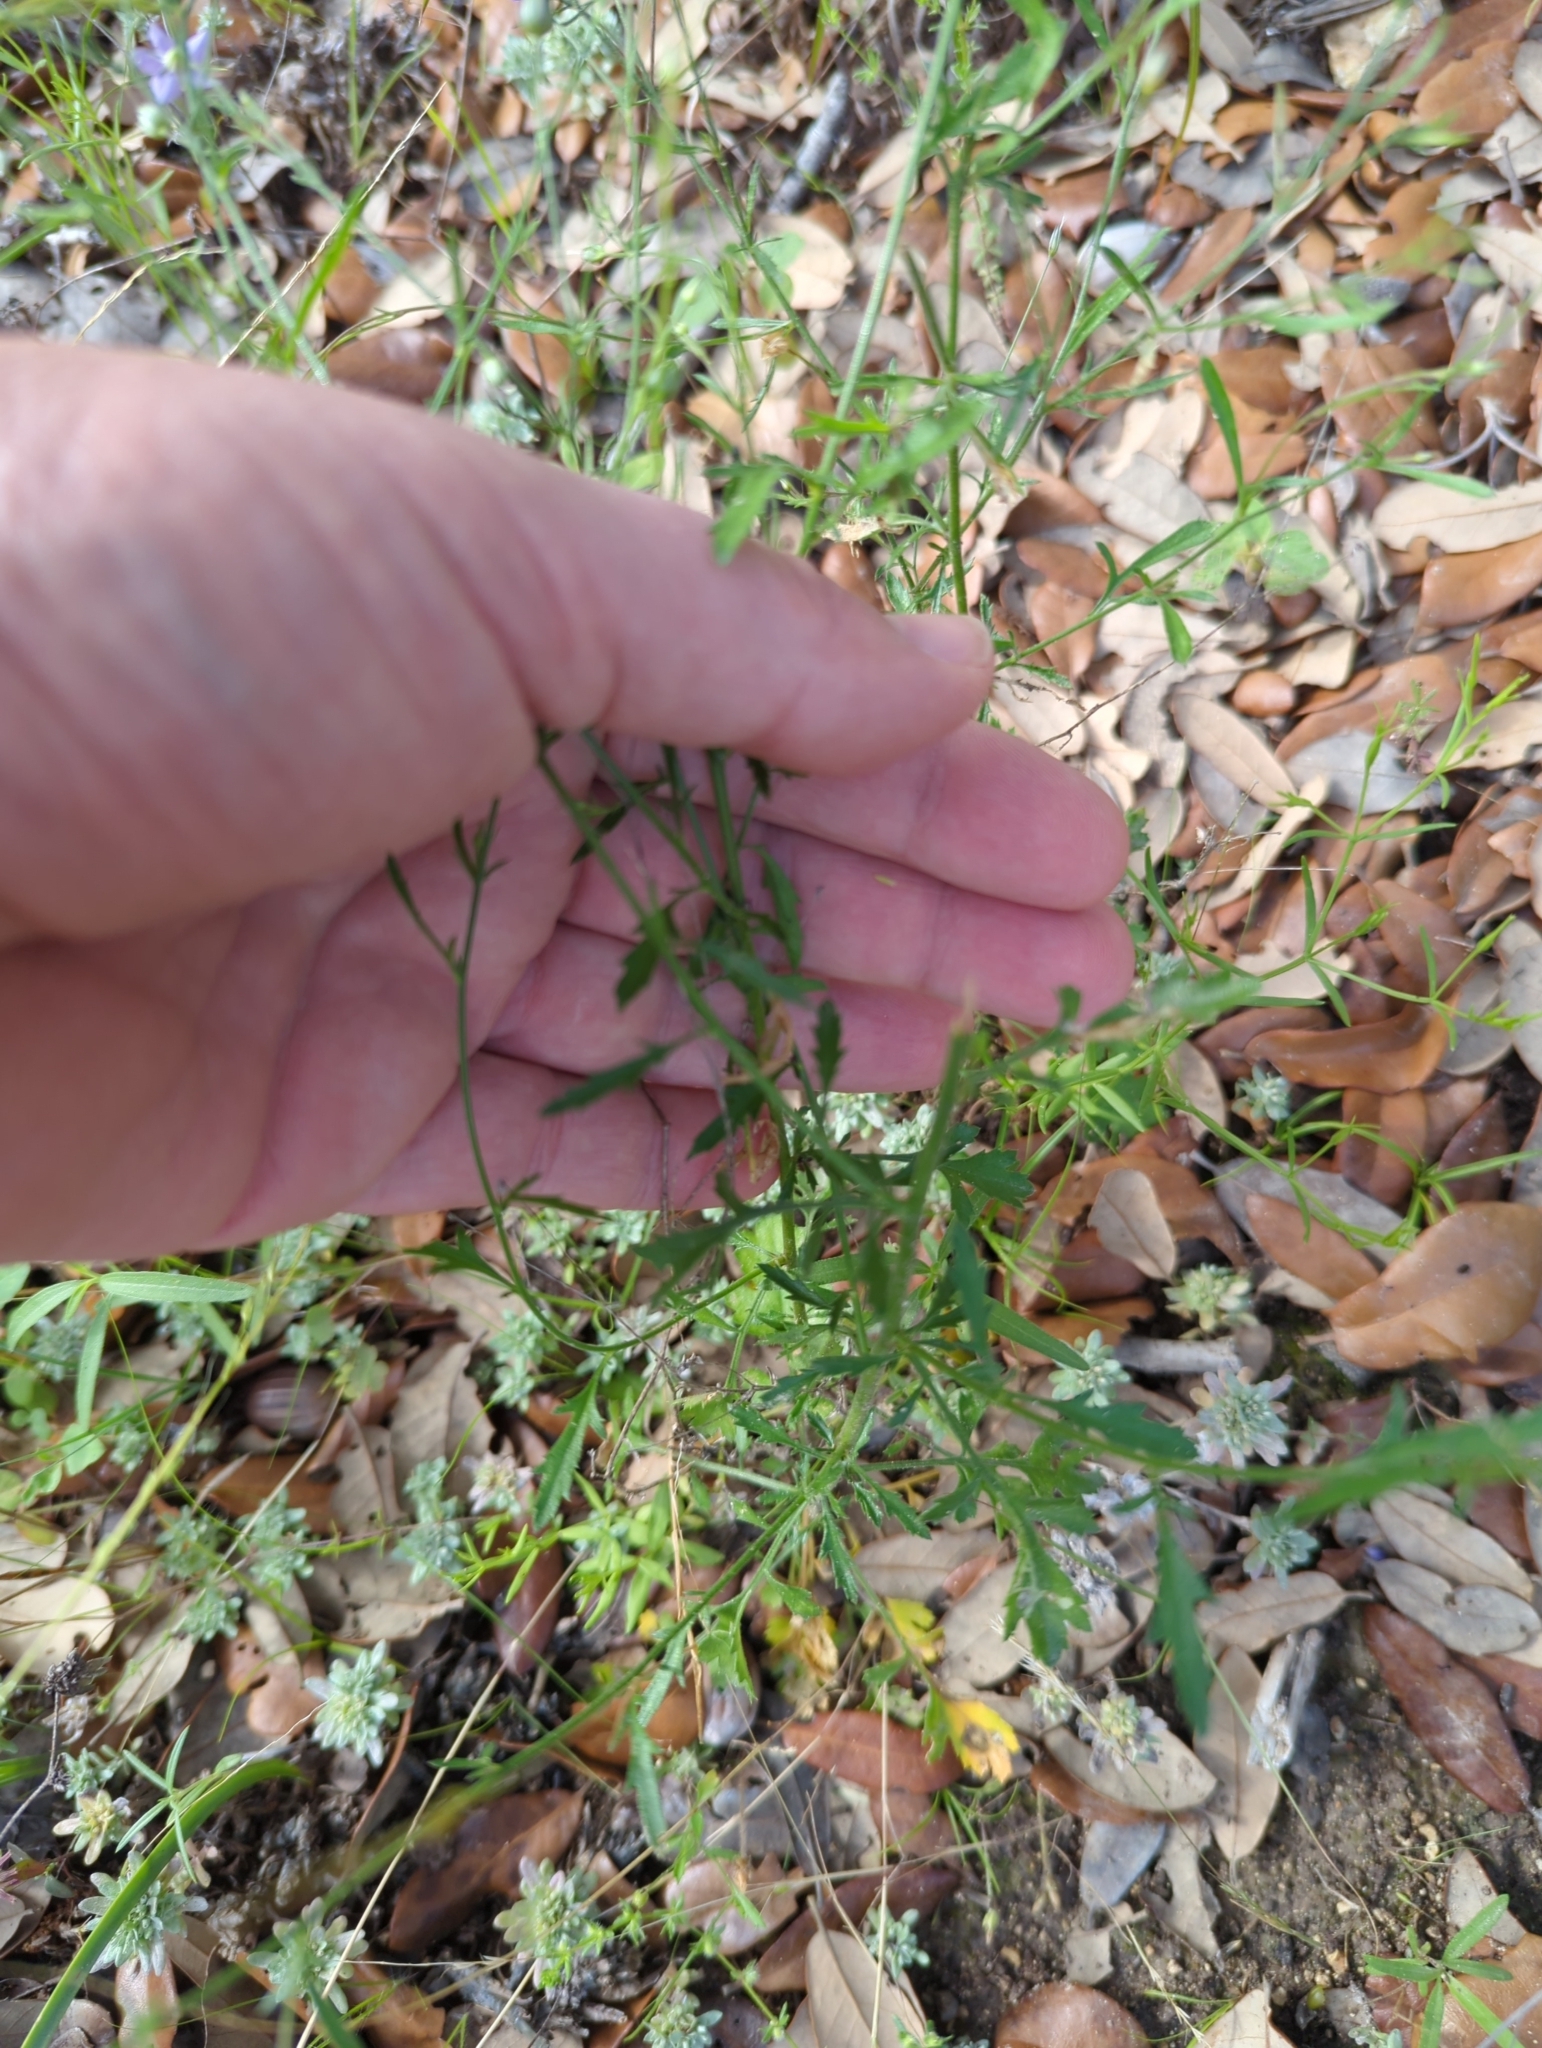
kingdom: Plantae
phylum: Tracheophyta
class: Magnoliopsida
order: Ericales
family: Polemoniaceae
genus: Giliastrum
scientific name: Giliastrum incisum
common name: Splitleaf gilia
